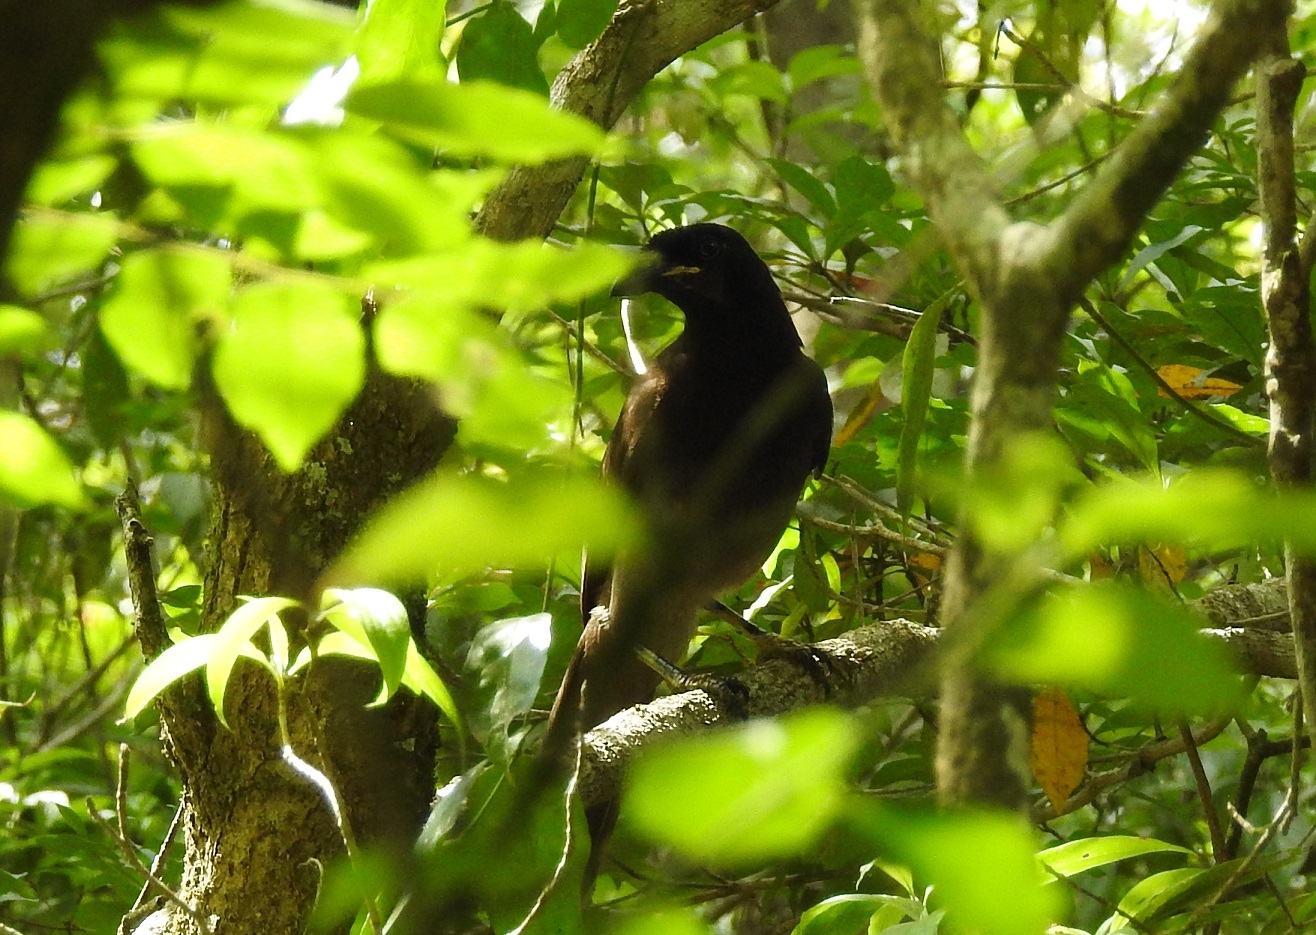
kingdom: Animalia
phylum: Chordata
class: Aves
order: Passeriformes
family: Corvidae
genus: Psilorhinus
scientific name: Psilorhinus morio
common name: Brown jay
